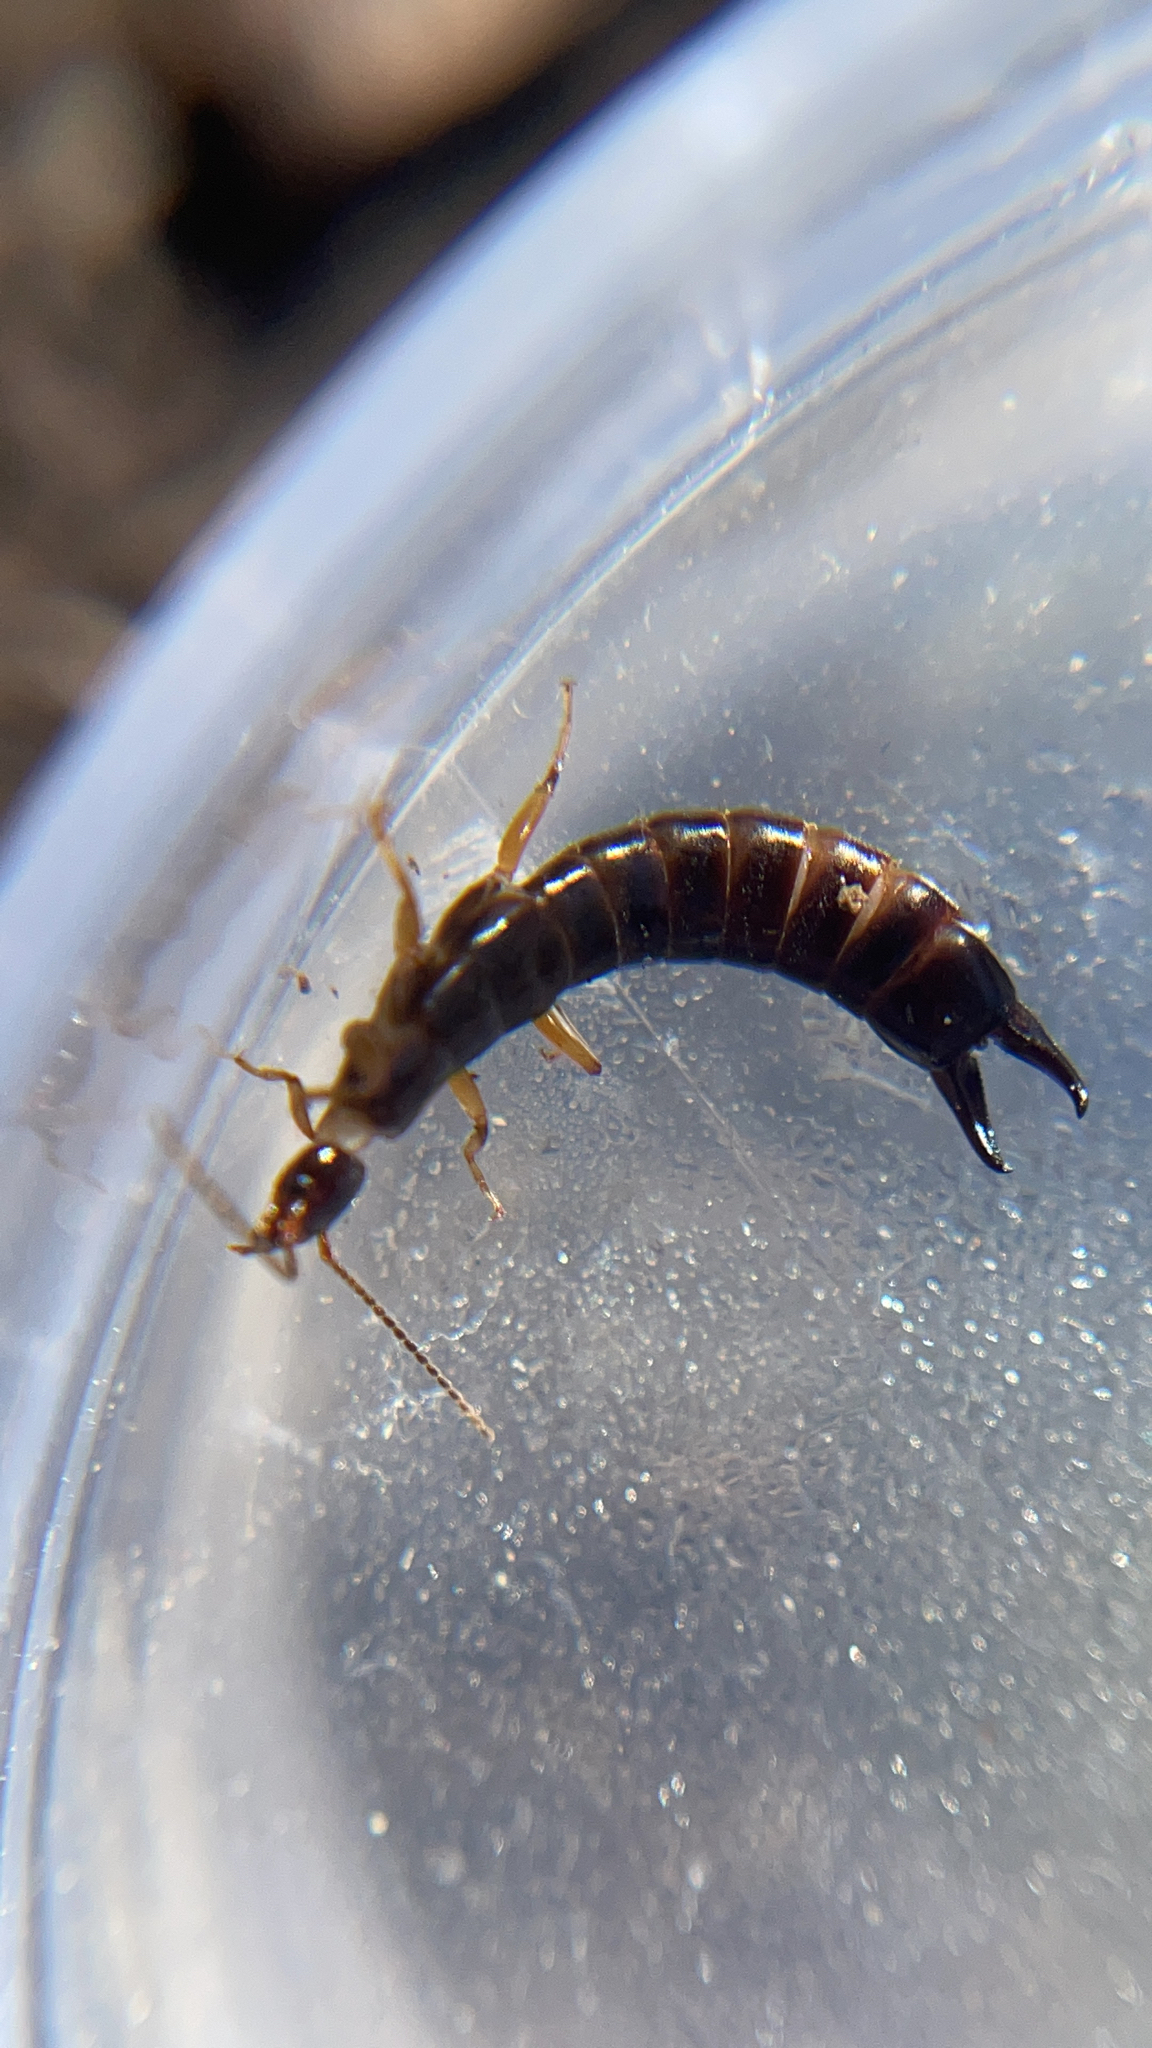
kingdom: Animalia
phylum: Arthropoda
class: Insecta
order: Dermaptera
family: Anisolabididae
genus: Euborellia
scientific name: Euborellia annulipes
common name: Ringlegged earwig
